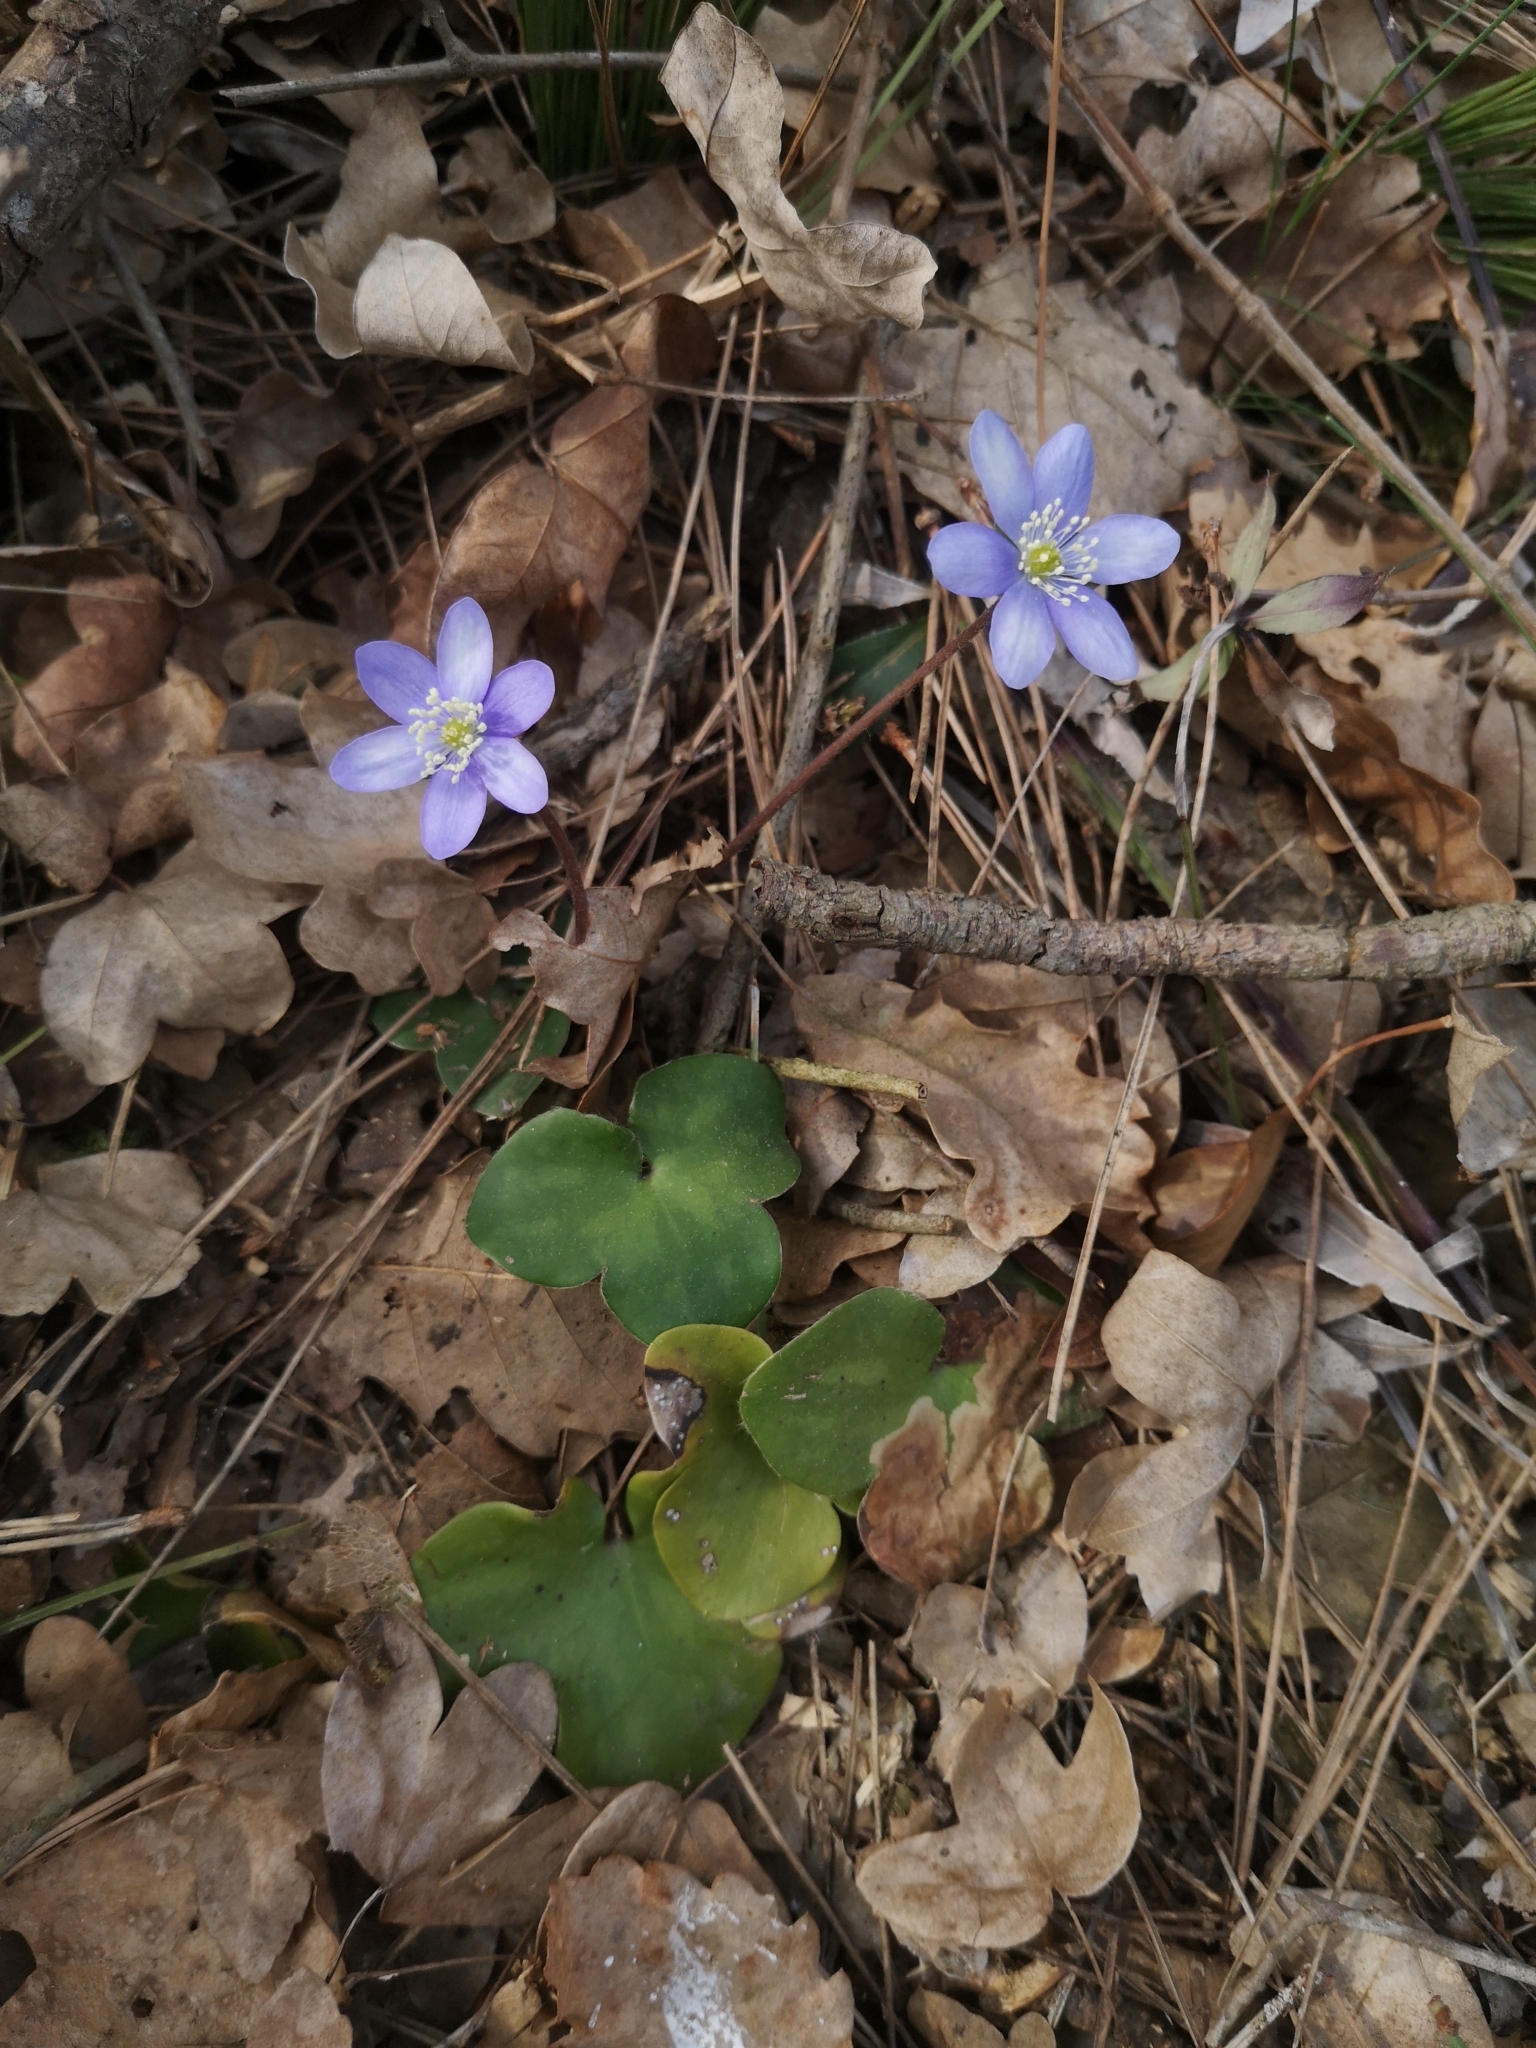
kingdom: Plantae
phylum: Tracheophyta
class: Magnoliopsida
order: Ranunculales
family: Ranunculaceae
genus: Hepatica
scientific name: Hepatica nobilis
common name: Liverleaf
